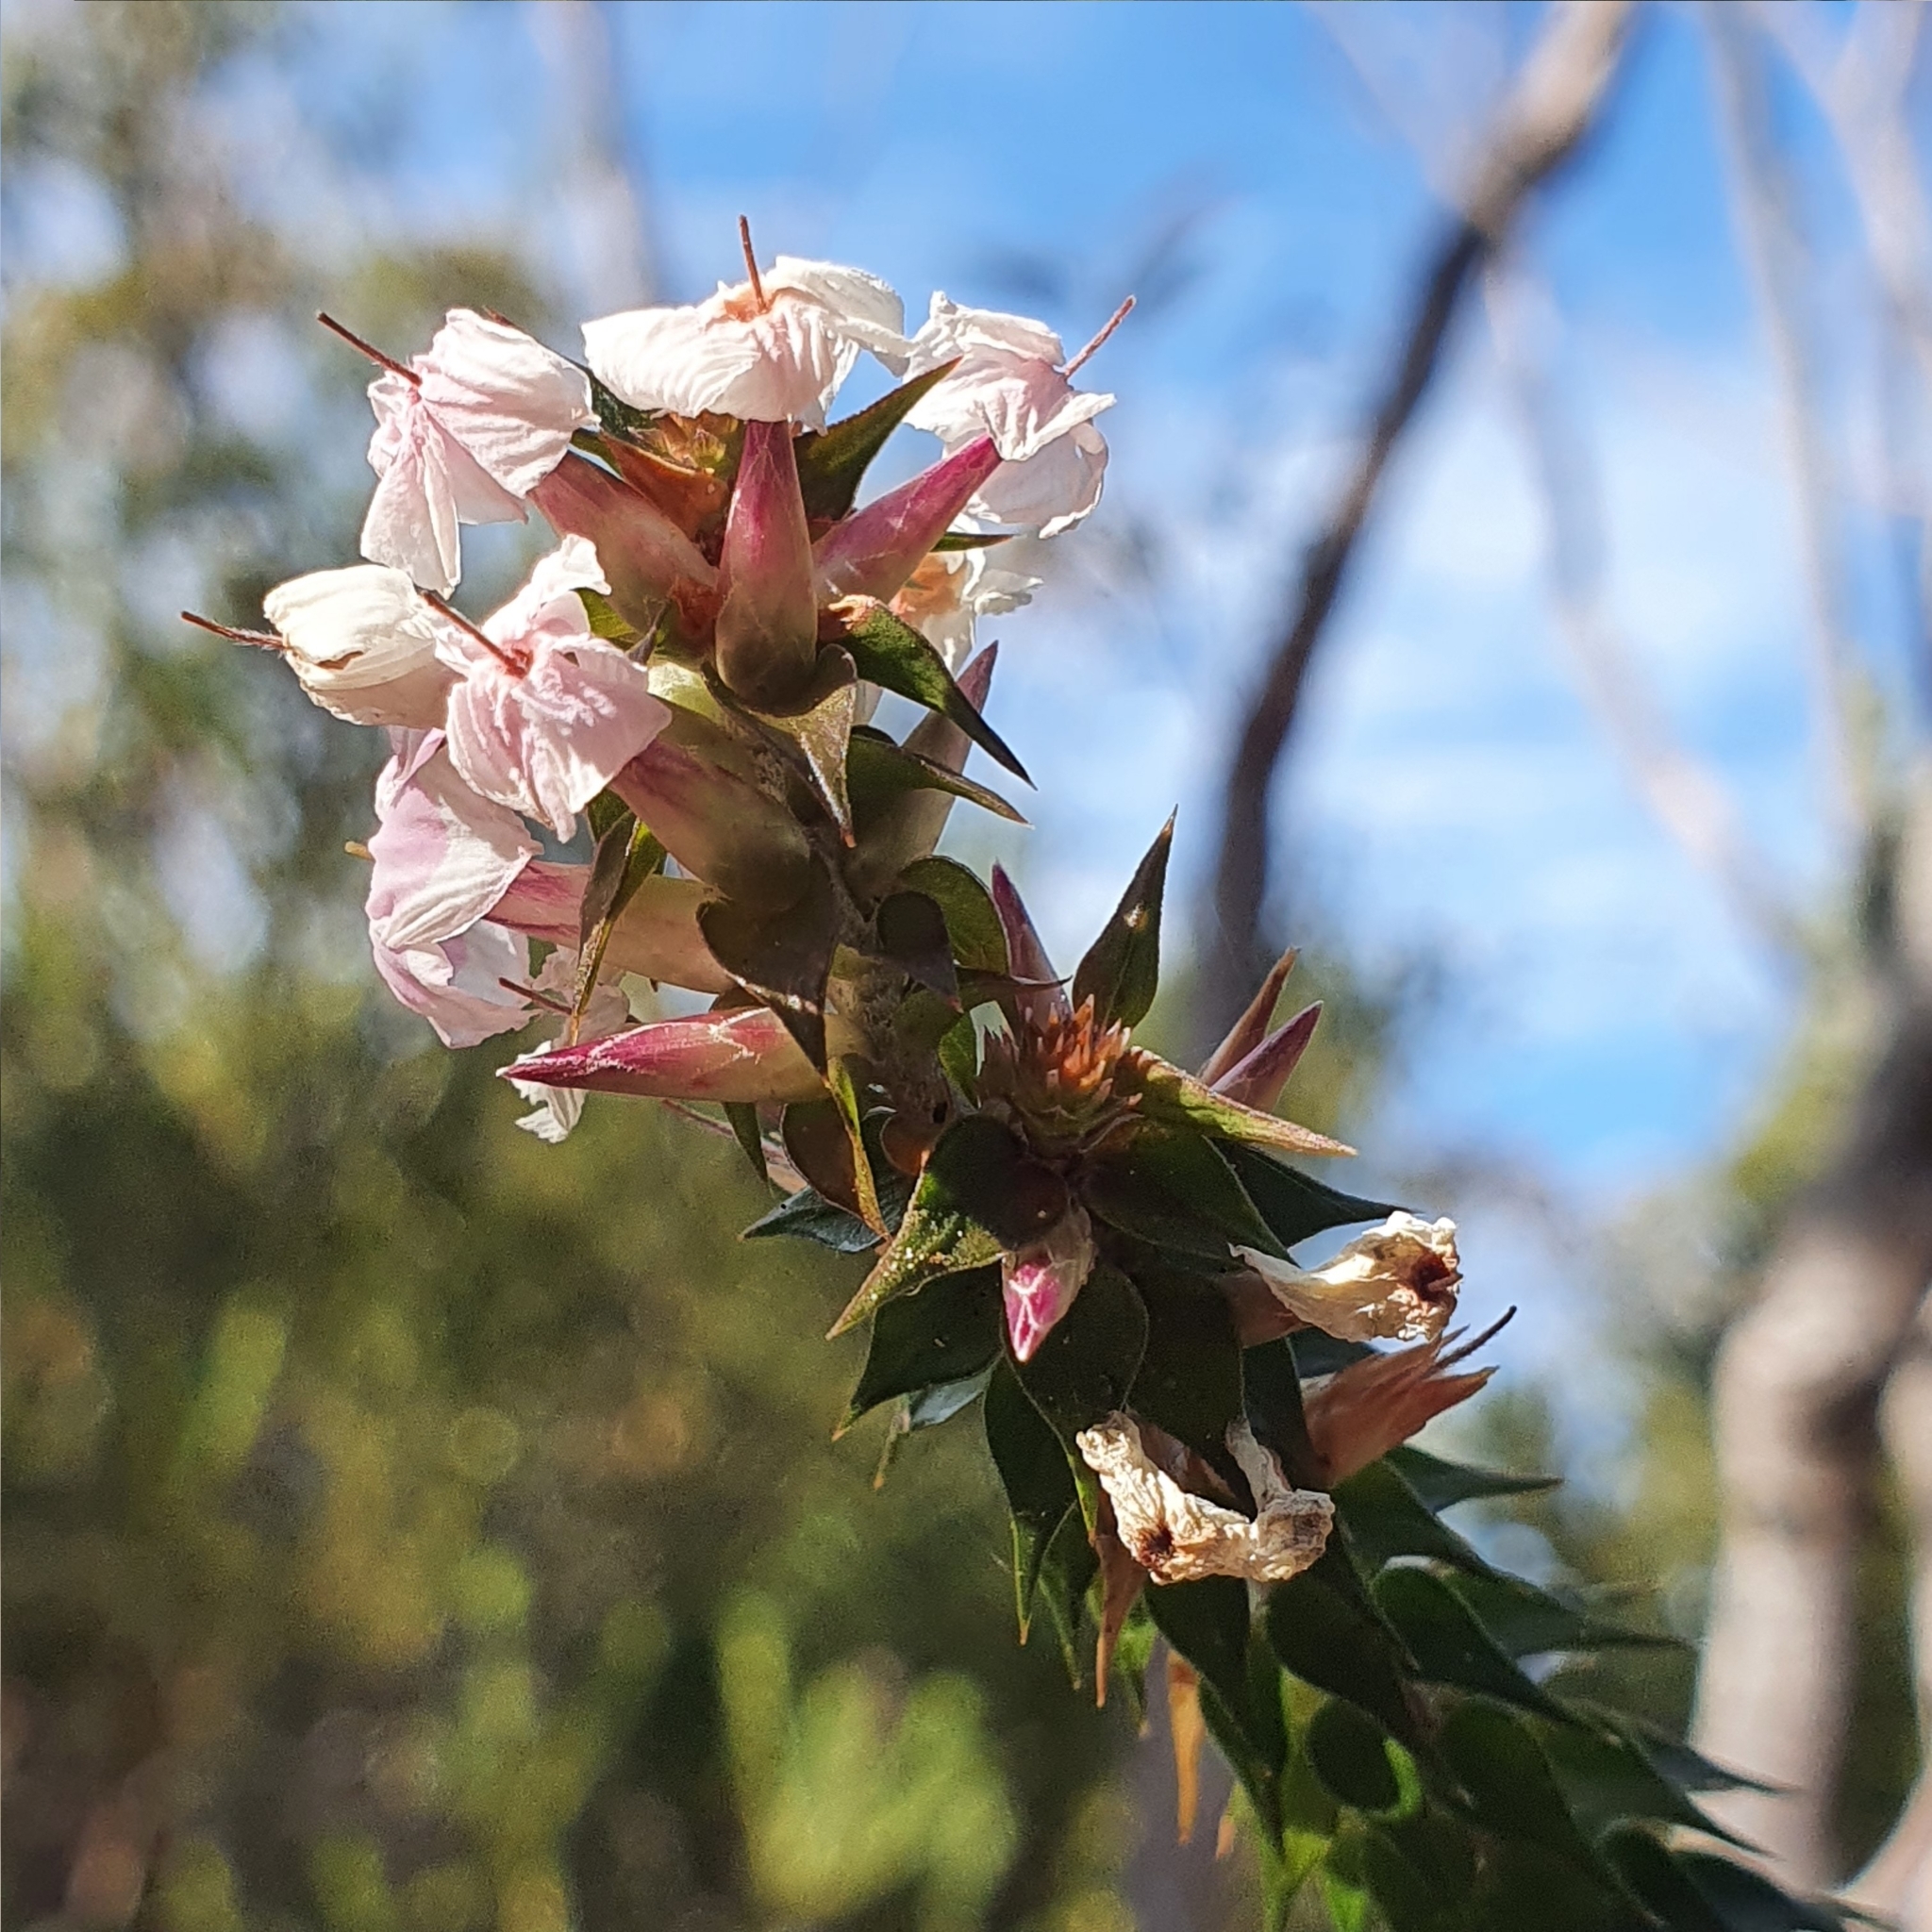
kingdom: Plantae
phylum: Tracheophyta
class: Magnoliopsida
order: Ericales
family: Ericaceae
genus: Woollsia
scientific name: Woollsia pungens
